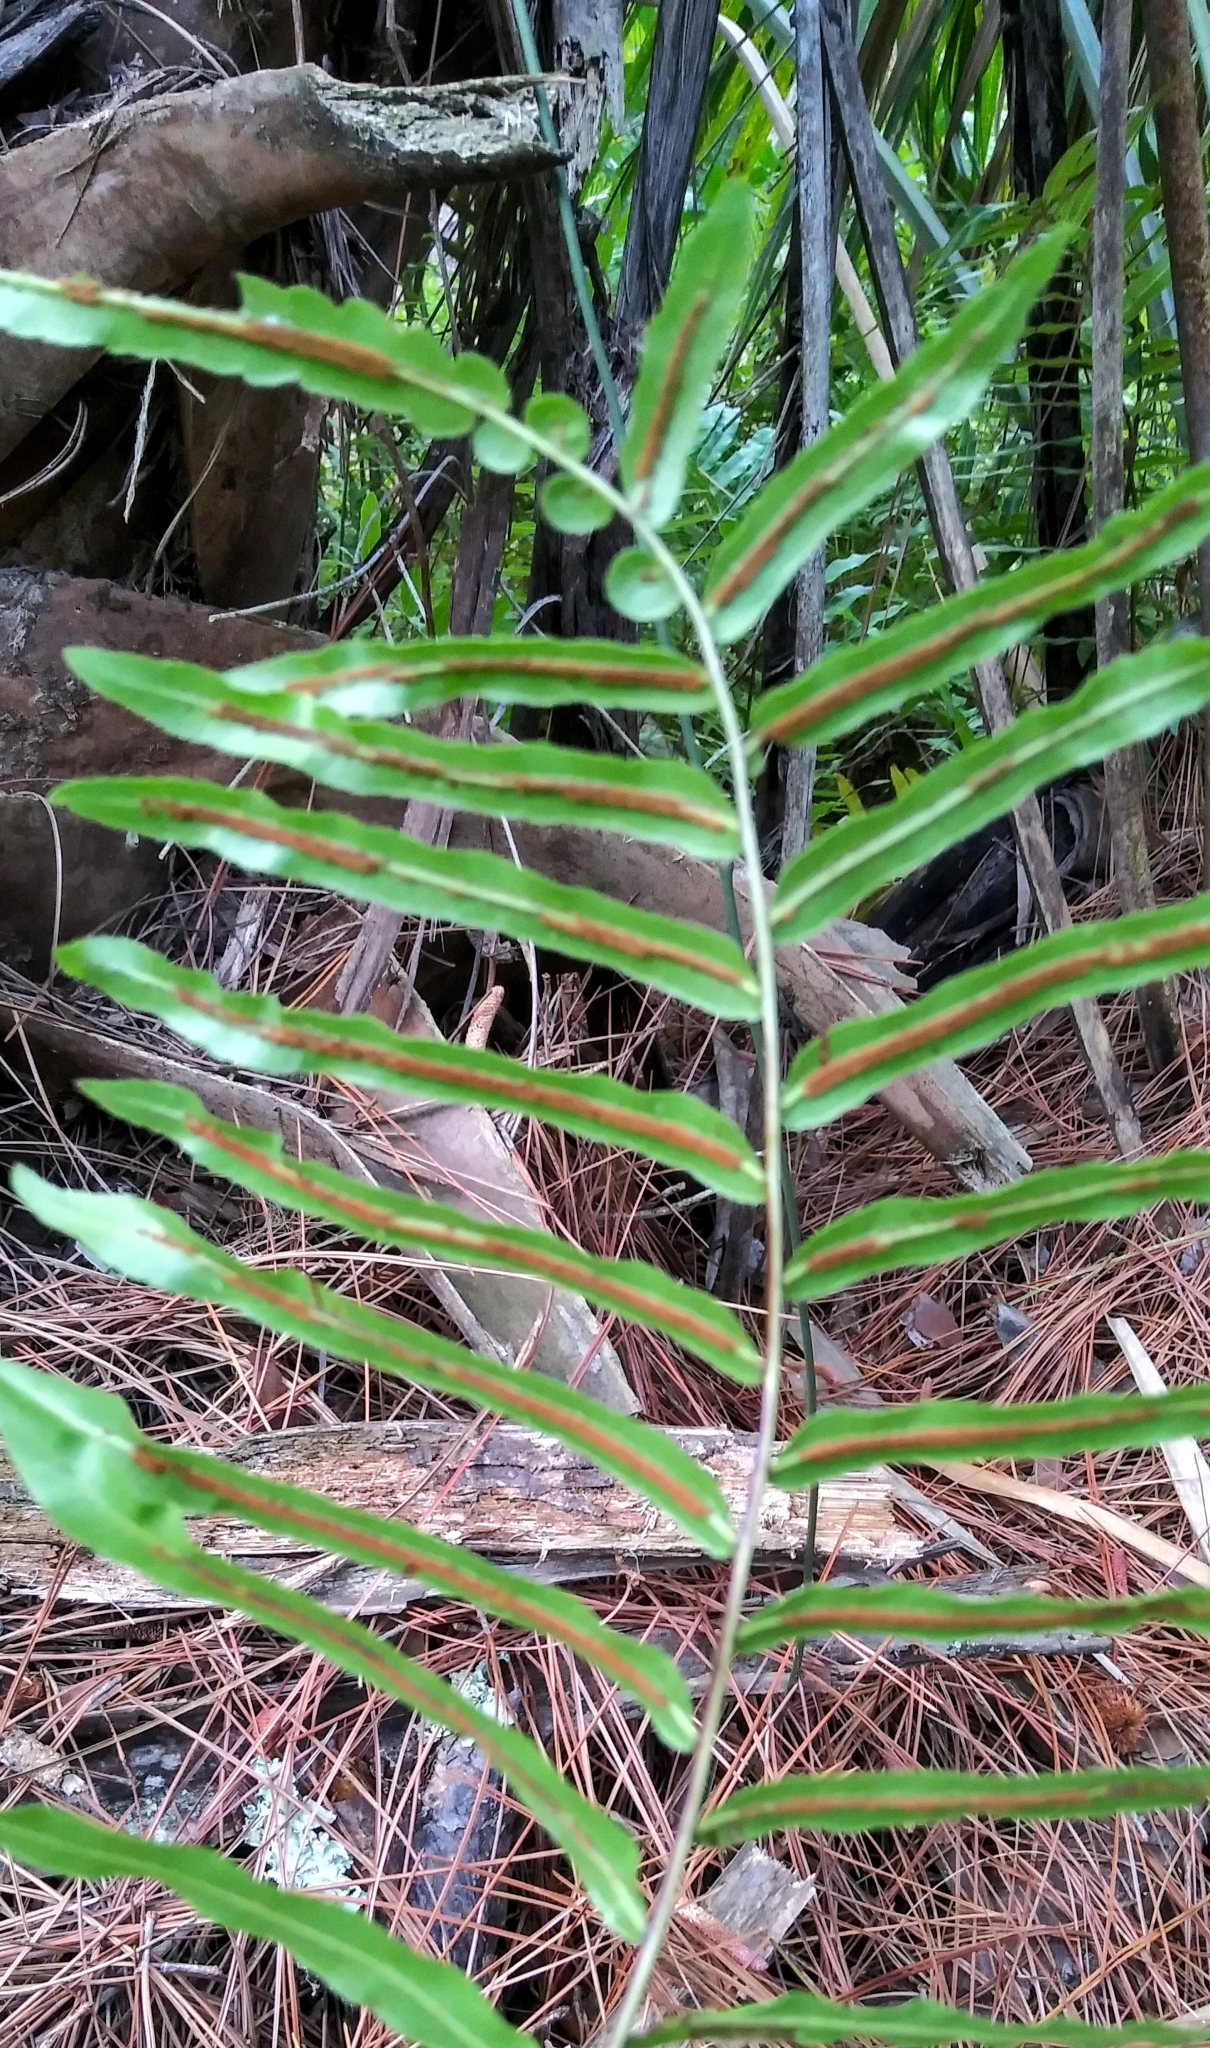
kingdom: Plantae
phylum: Tracheophyta
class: Polypodiopsida
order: Polypodiales
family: Blechnaceae
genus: Telmatoblechnum
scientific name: Telmatoblechnum serrulatum
